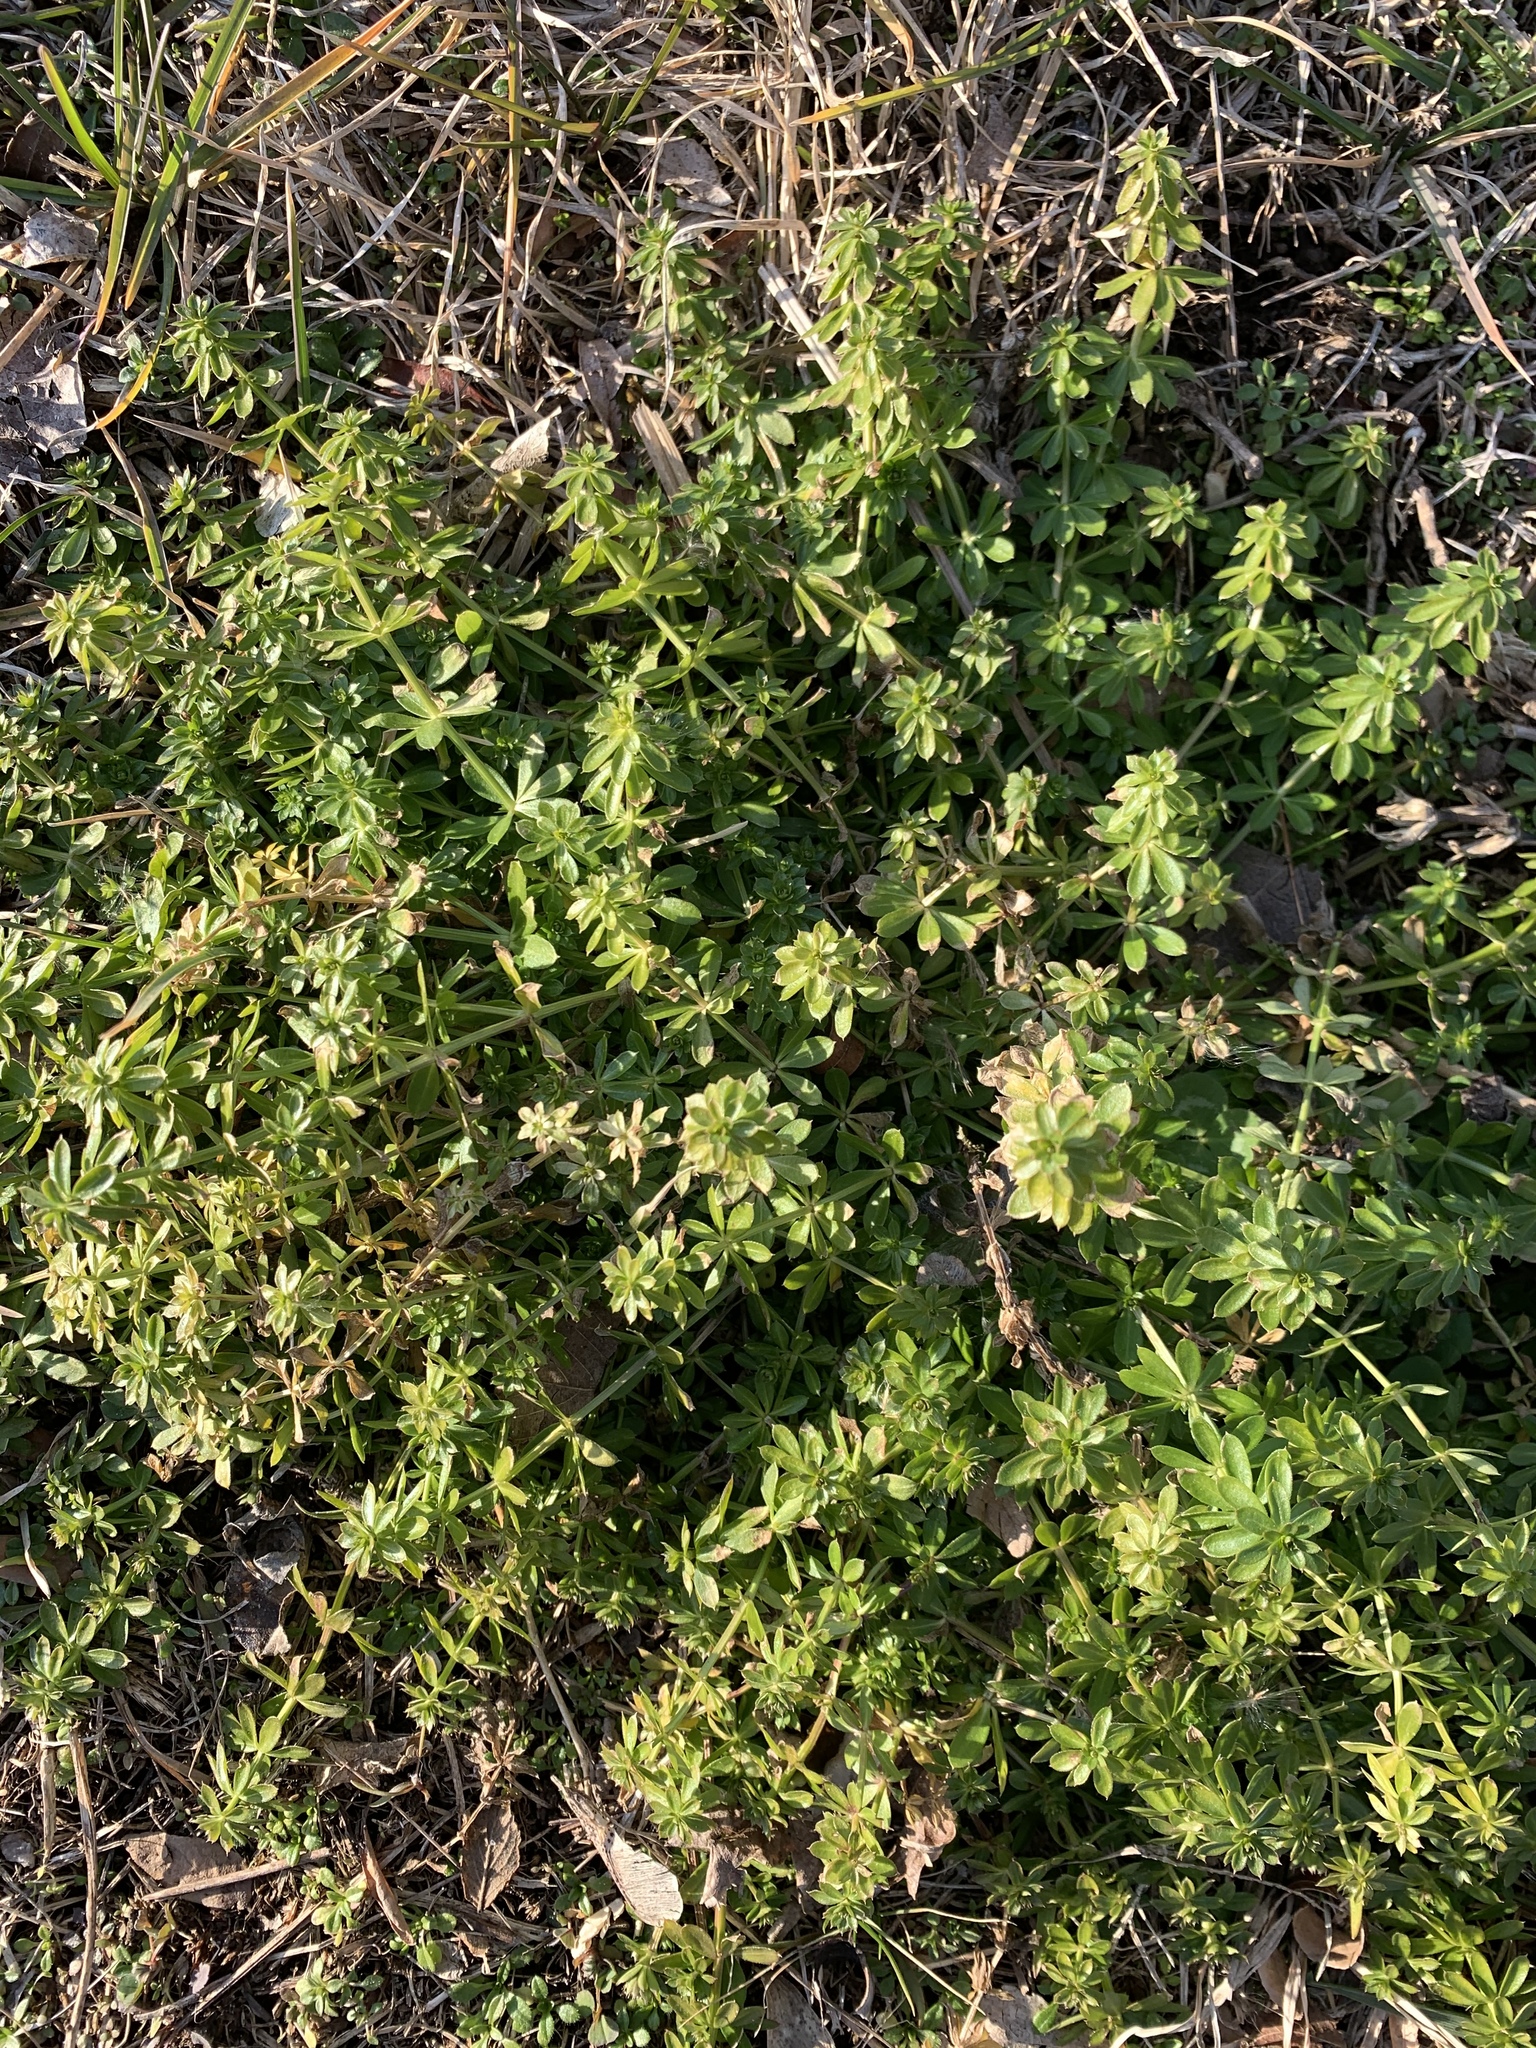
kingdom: Plantae
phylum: Tracheophyta
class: Magnoliopsida
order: Gentianales
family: Rubiaceae
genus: Galium
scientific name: Galium mollugo
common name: Hedge bedstraw
